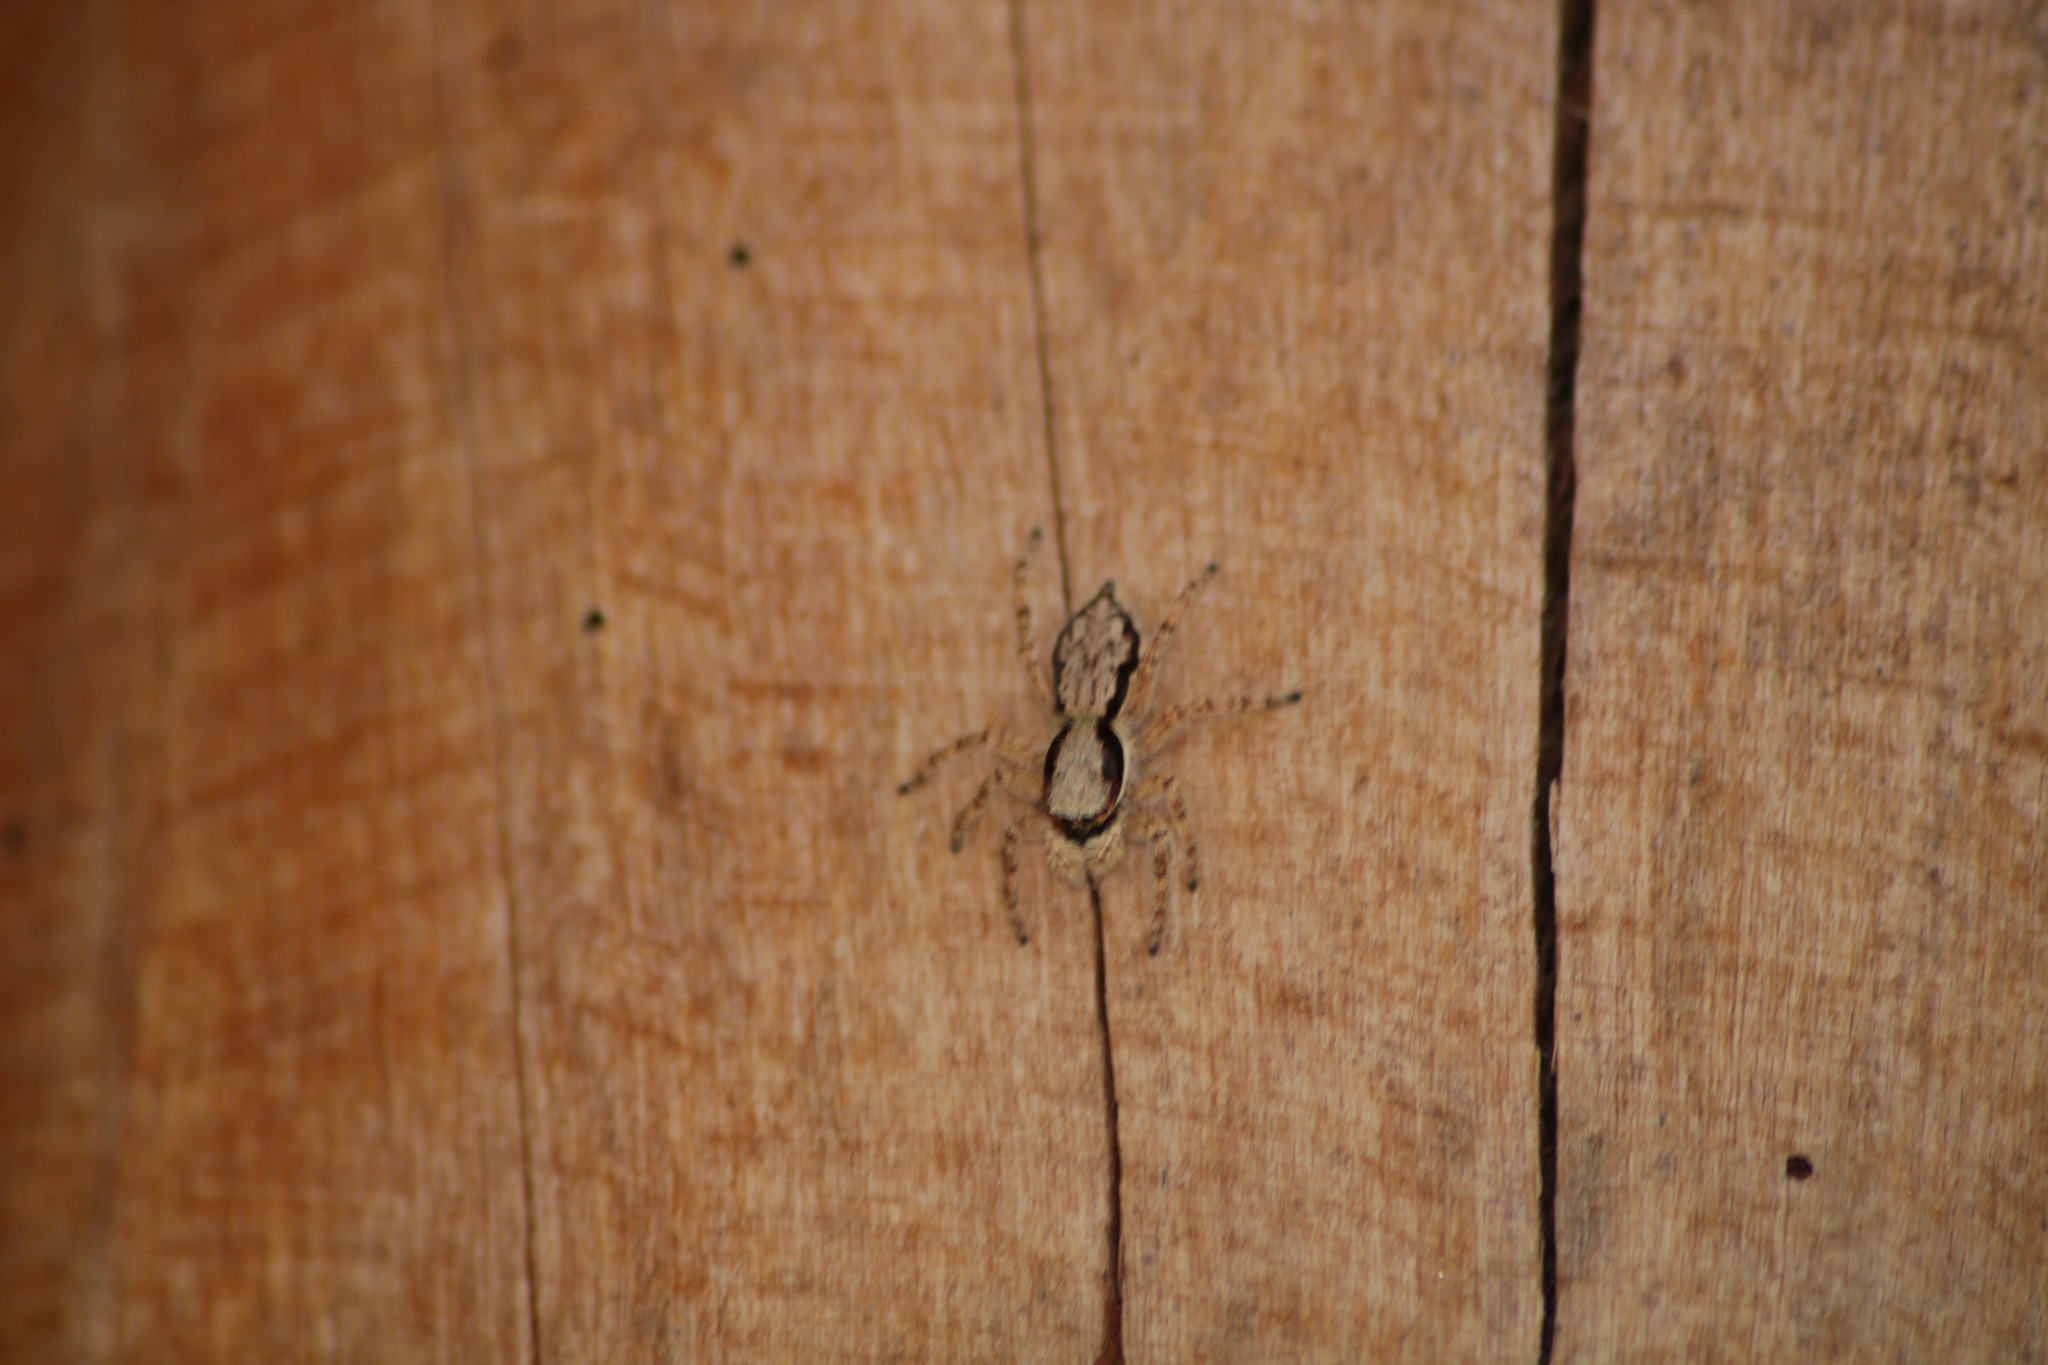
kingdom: Animalia
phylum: Arthropoda
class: Arachnida
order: Araneae
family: Salticidae
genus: Menemerus
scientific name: Menemerus bivittatus
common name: Gray wall jumper
